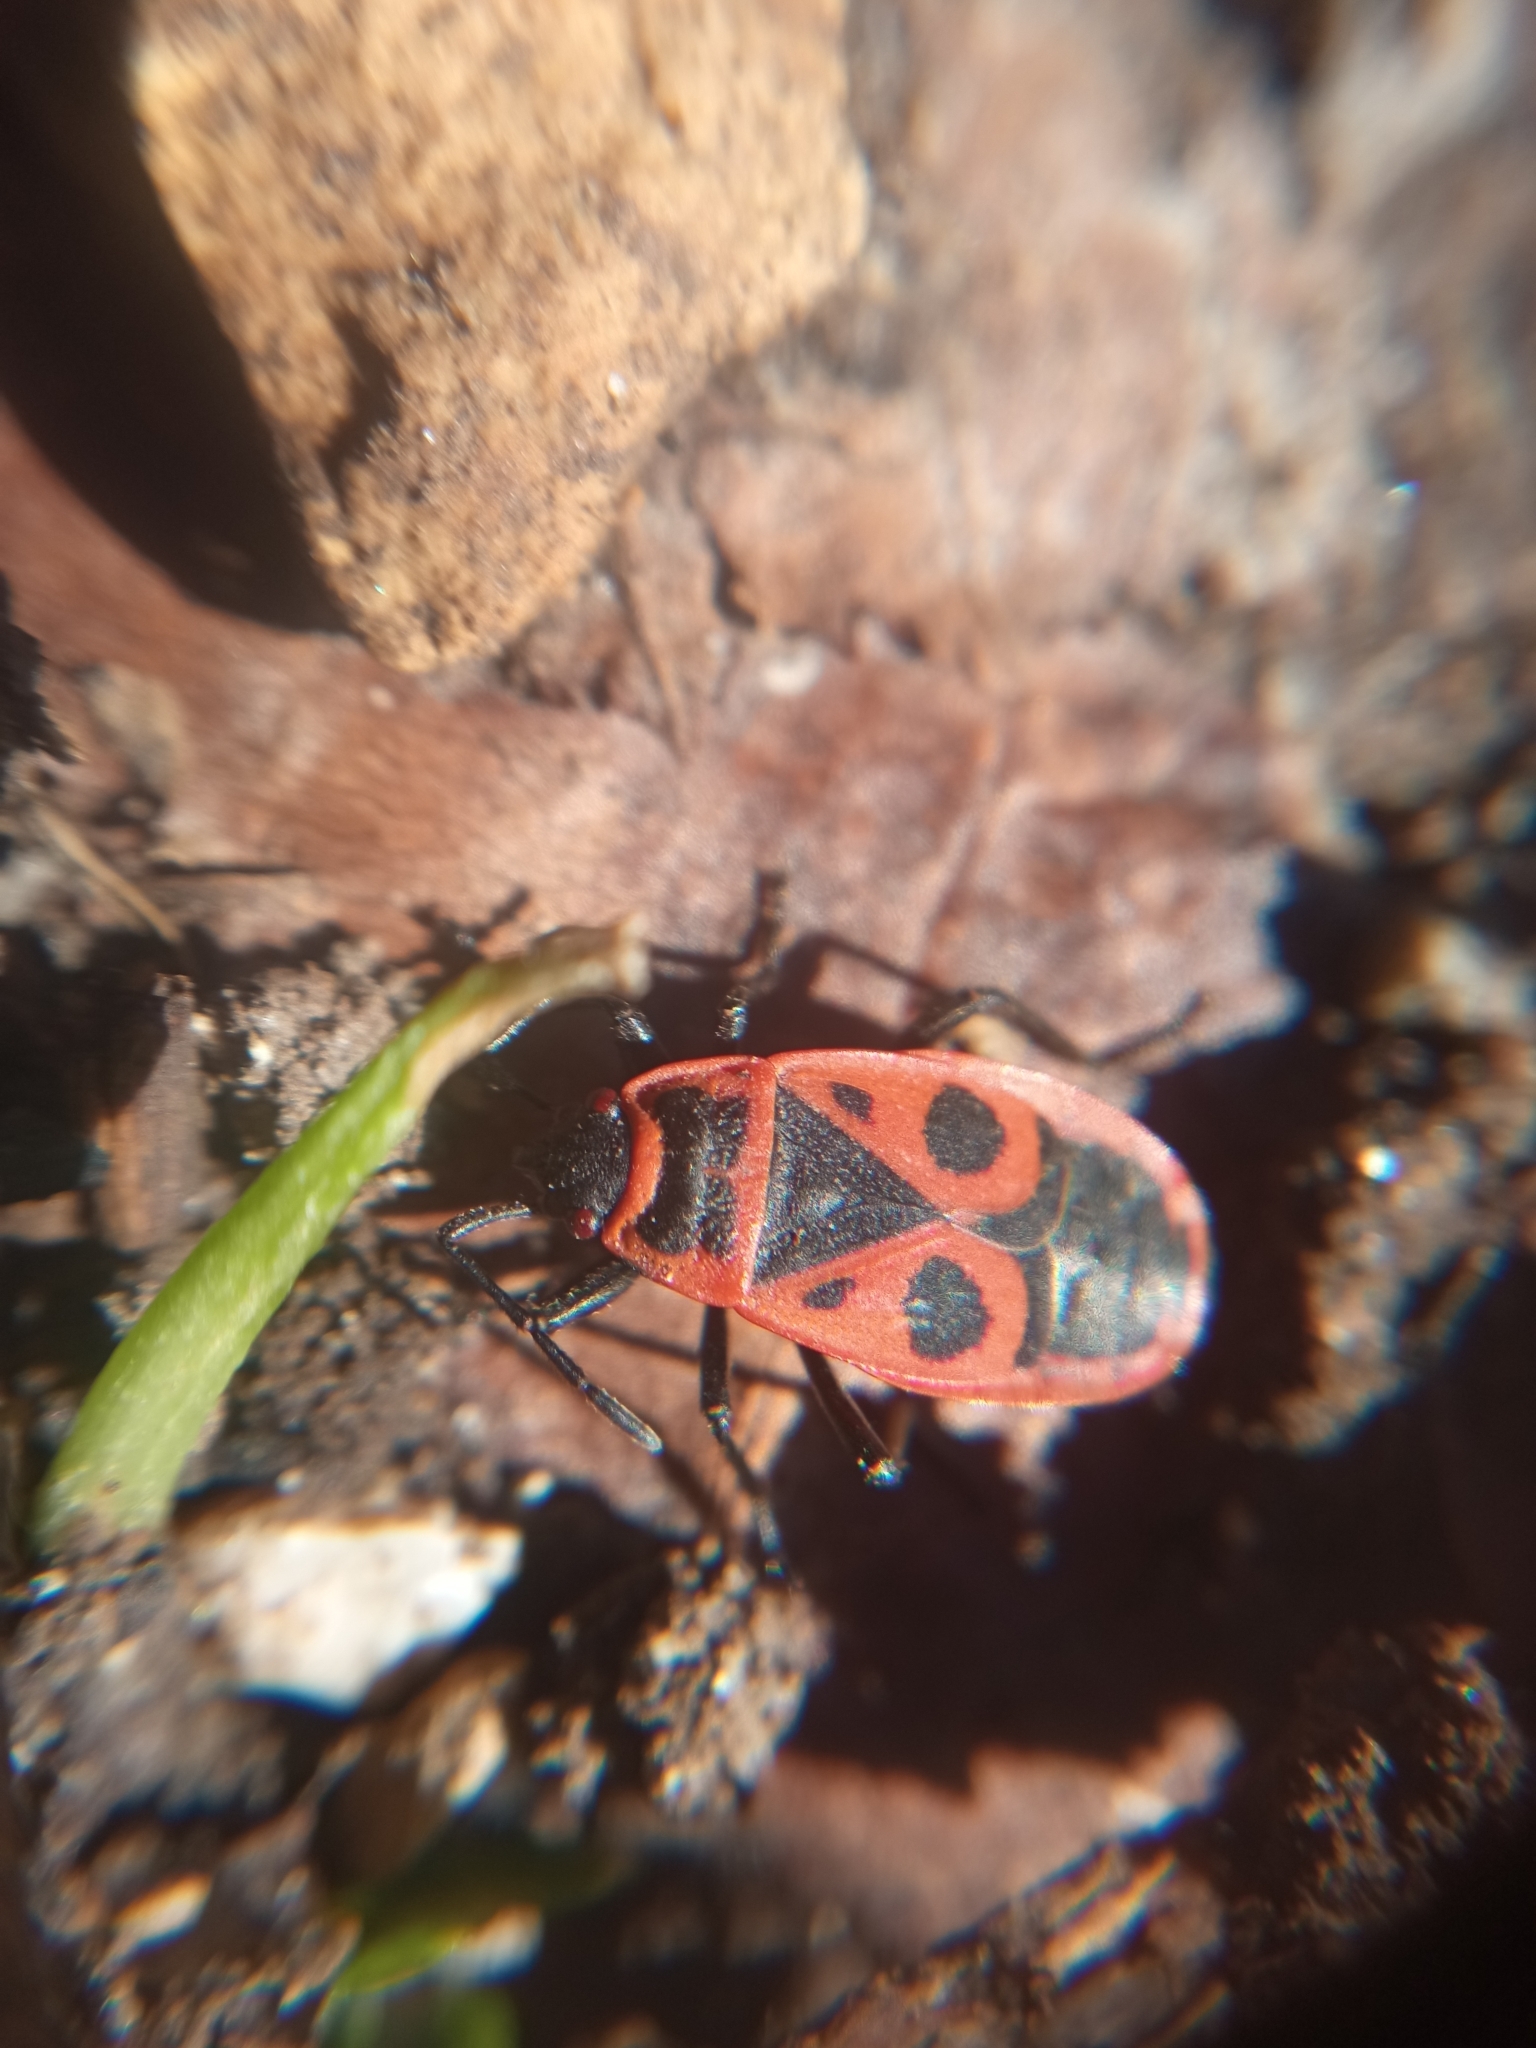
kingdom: Animalia
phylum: Arthropoda
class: Insecta
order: Hemiptera
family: Pyrrhocoridae
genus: Pyrrhocoris
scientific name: Pyrrhocoris apterus
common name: Firebug
